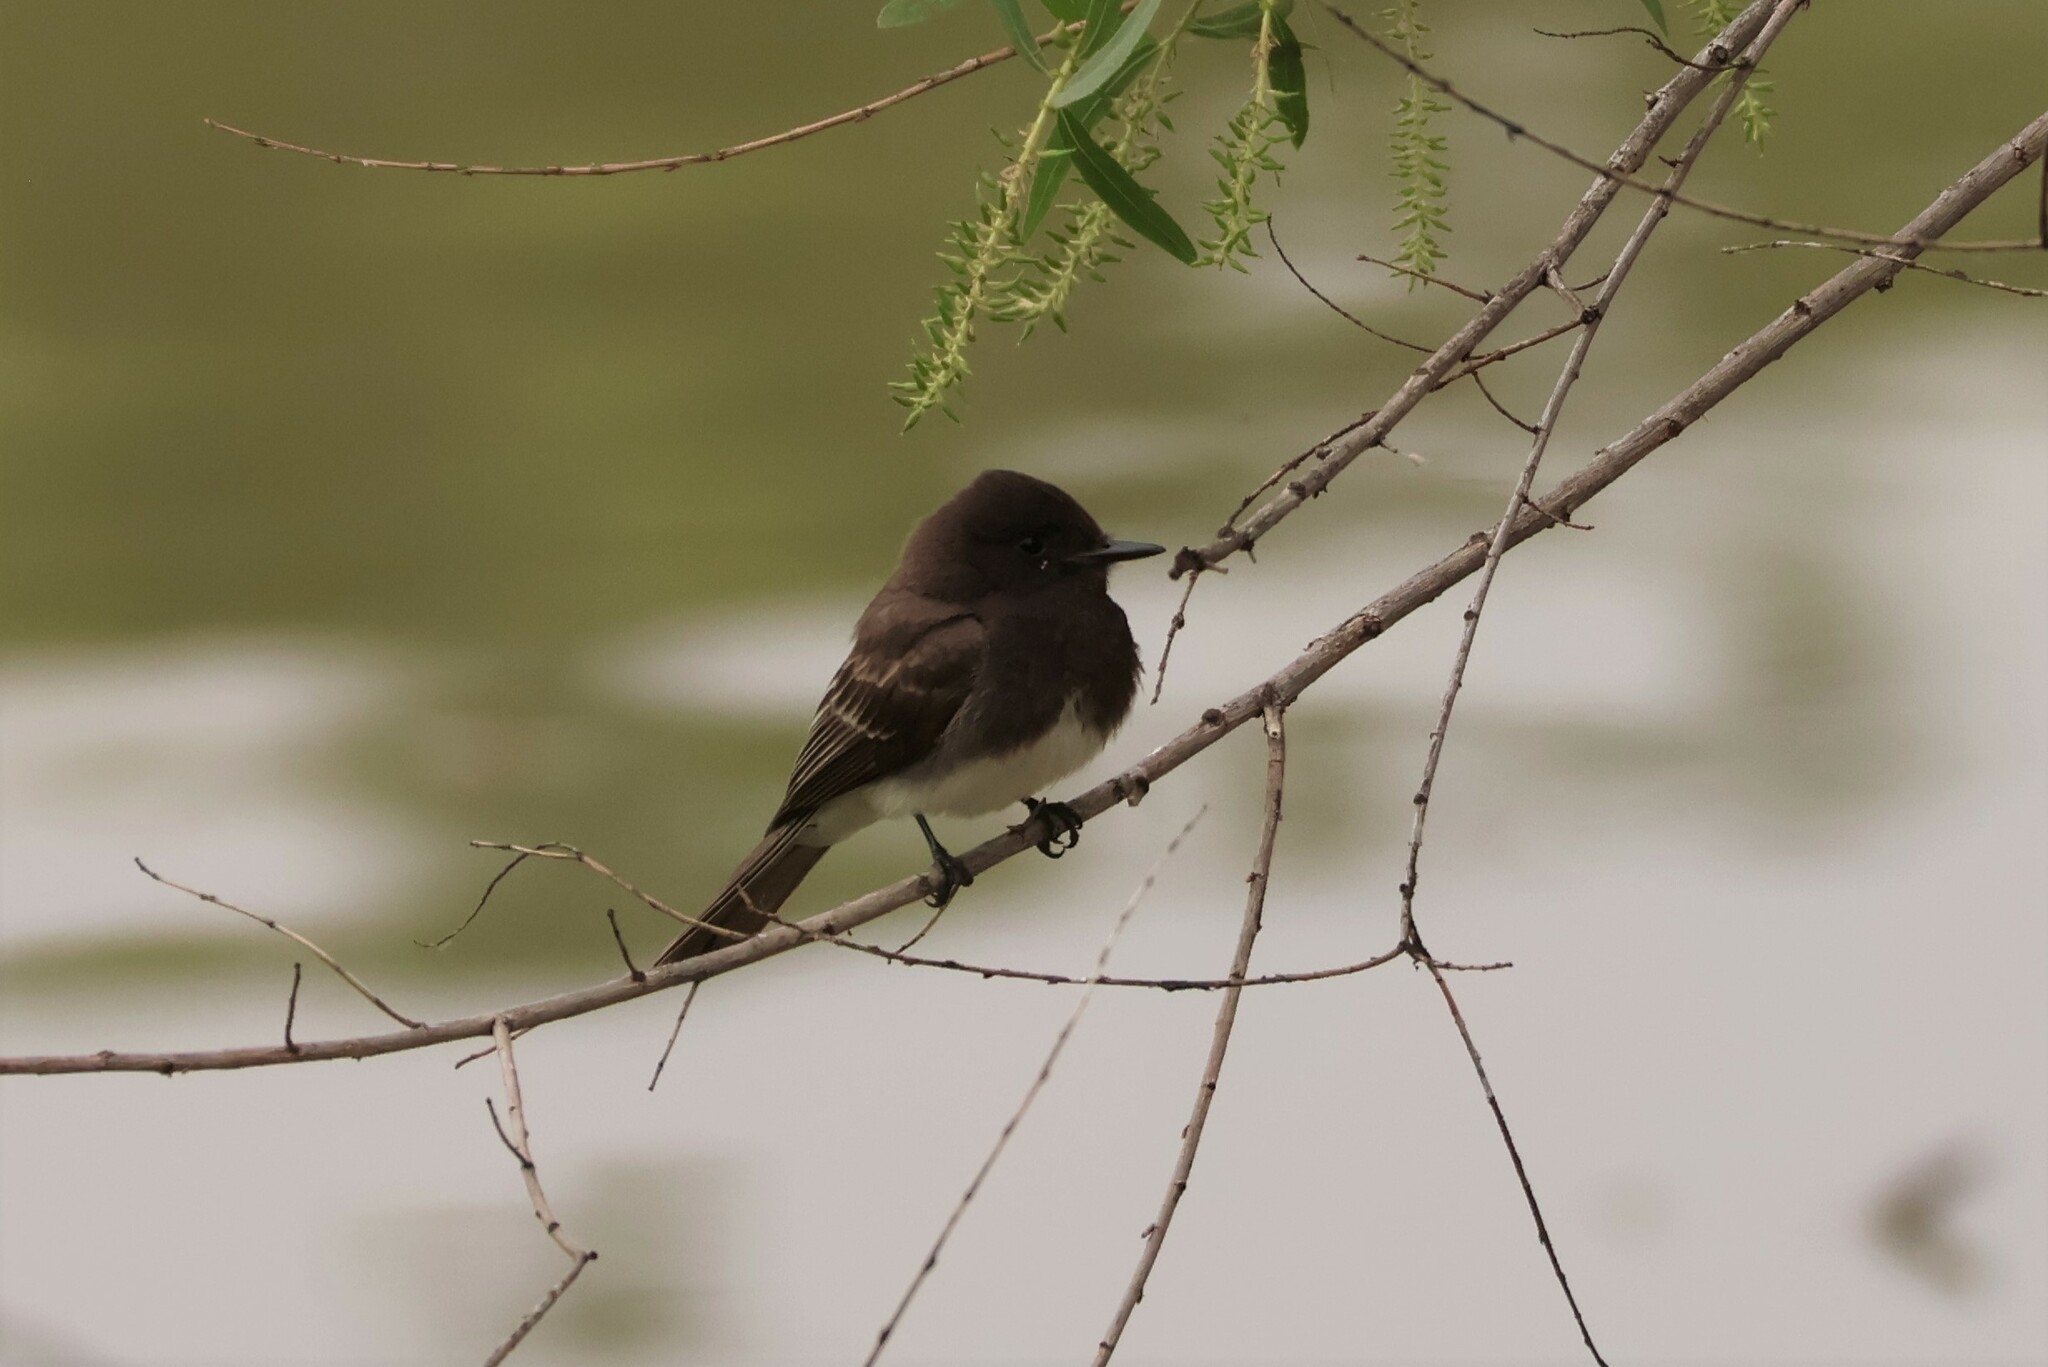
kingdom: Animalia
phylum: Chordata
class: Aves
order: Passeriformes
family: Tyrannidae
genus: Sayornis
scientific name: Sayornis nigricans
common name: Black phoebe
